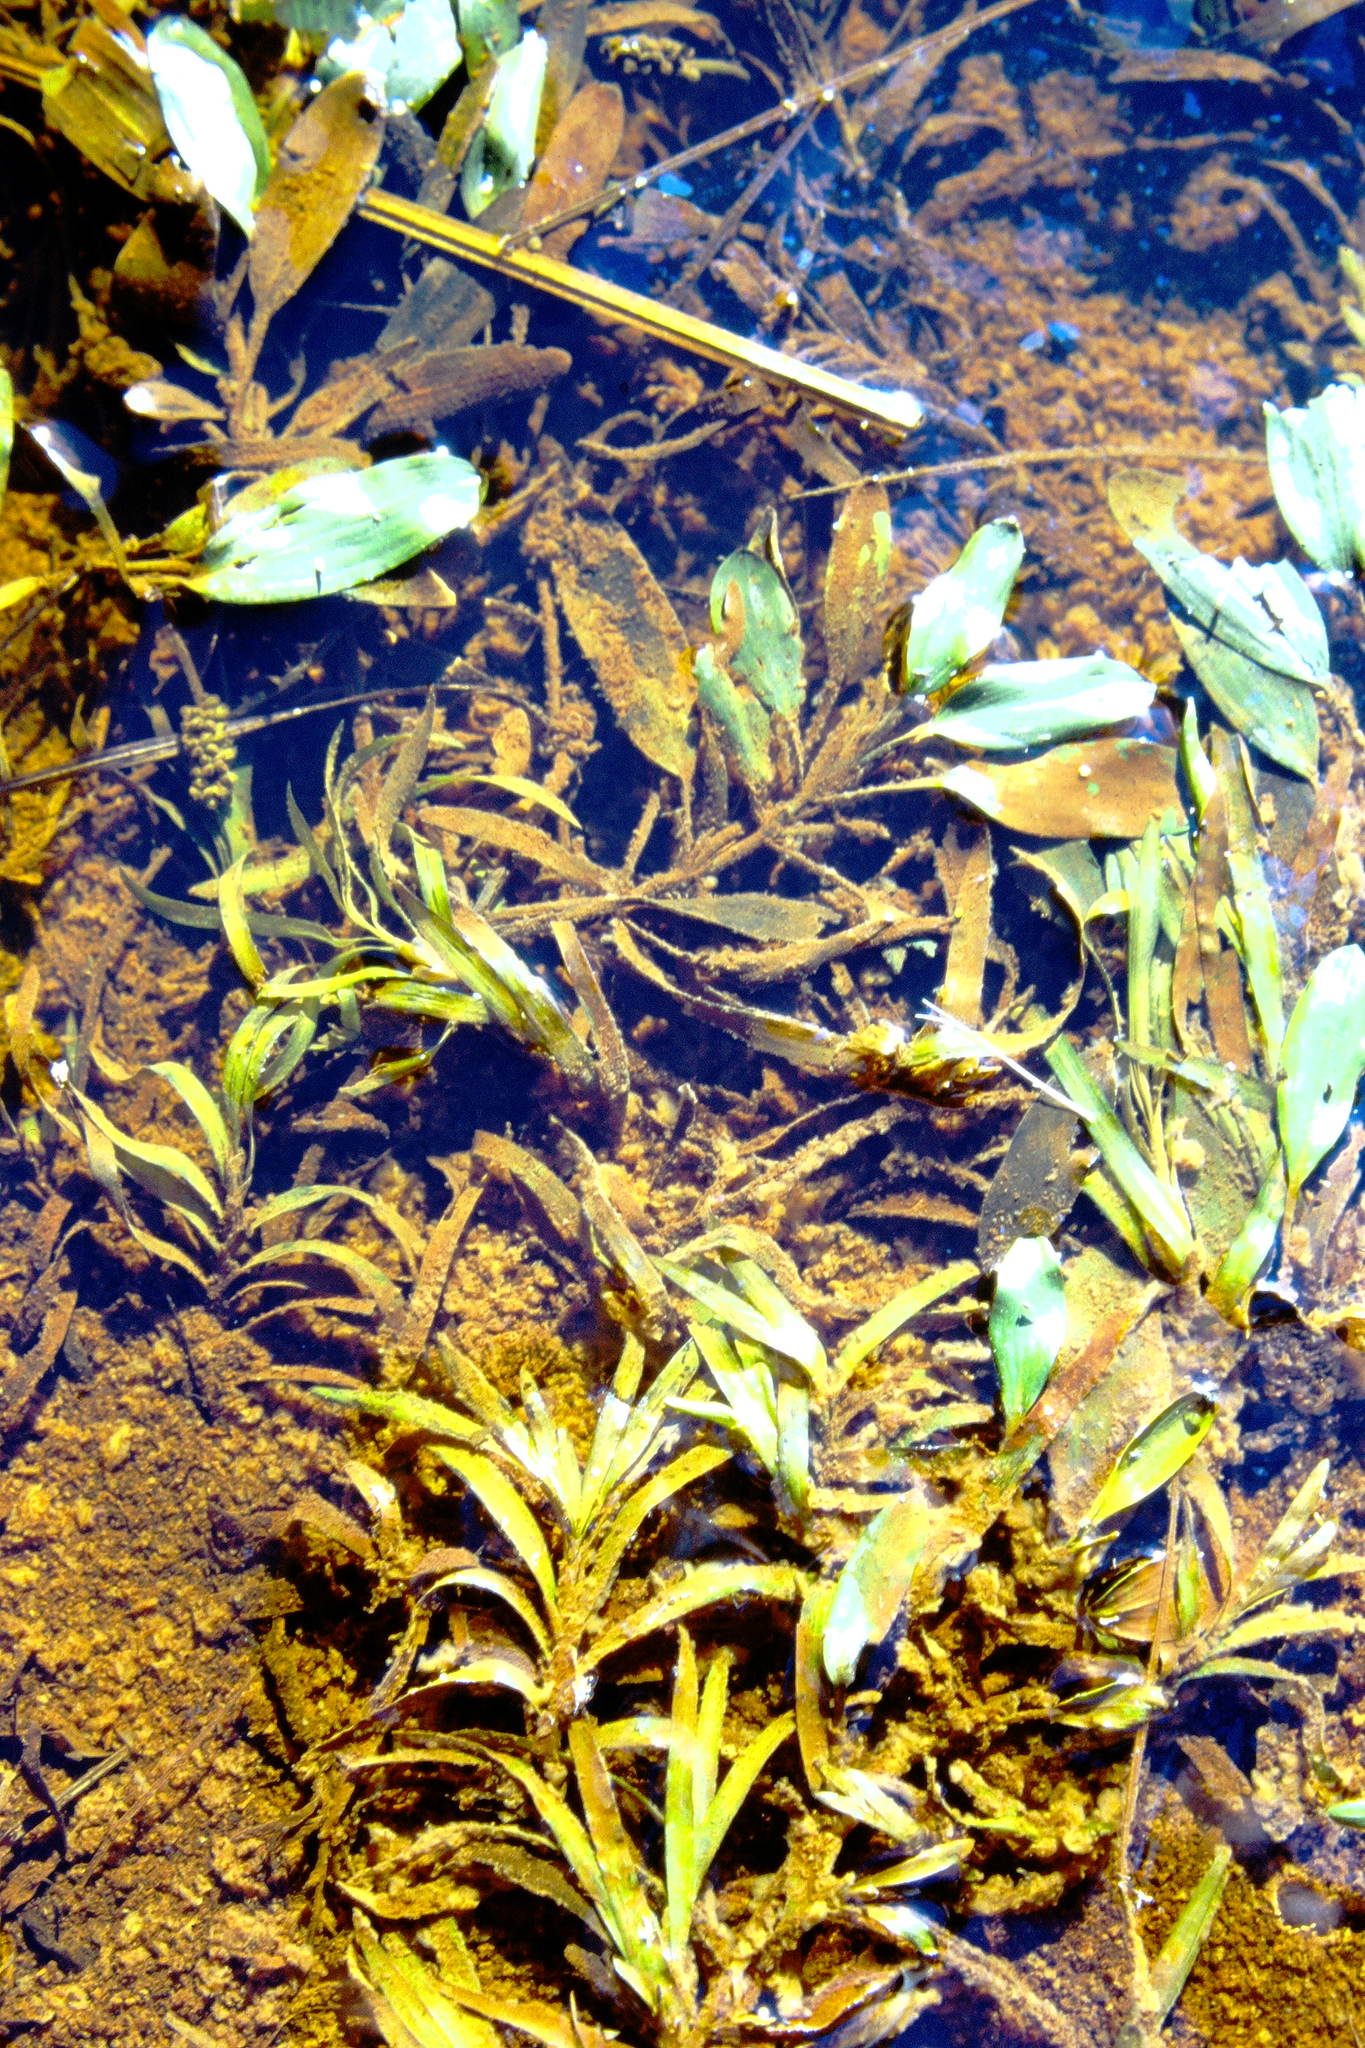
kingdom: Plantae
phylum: Tracheophyta
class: Liliopsida
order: Alismatales
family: Potamogetonaceae
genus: Potamogeton
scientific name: Potamogeton epihydrus
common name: American pondweed
